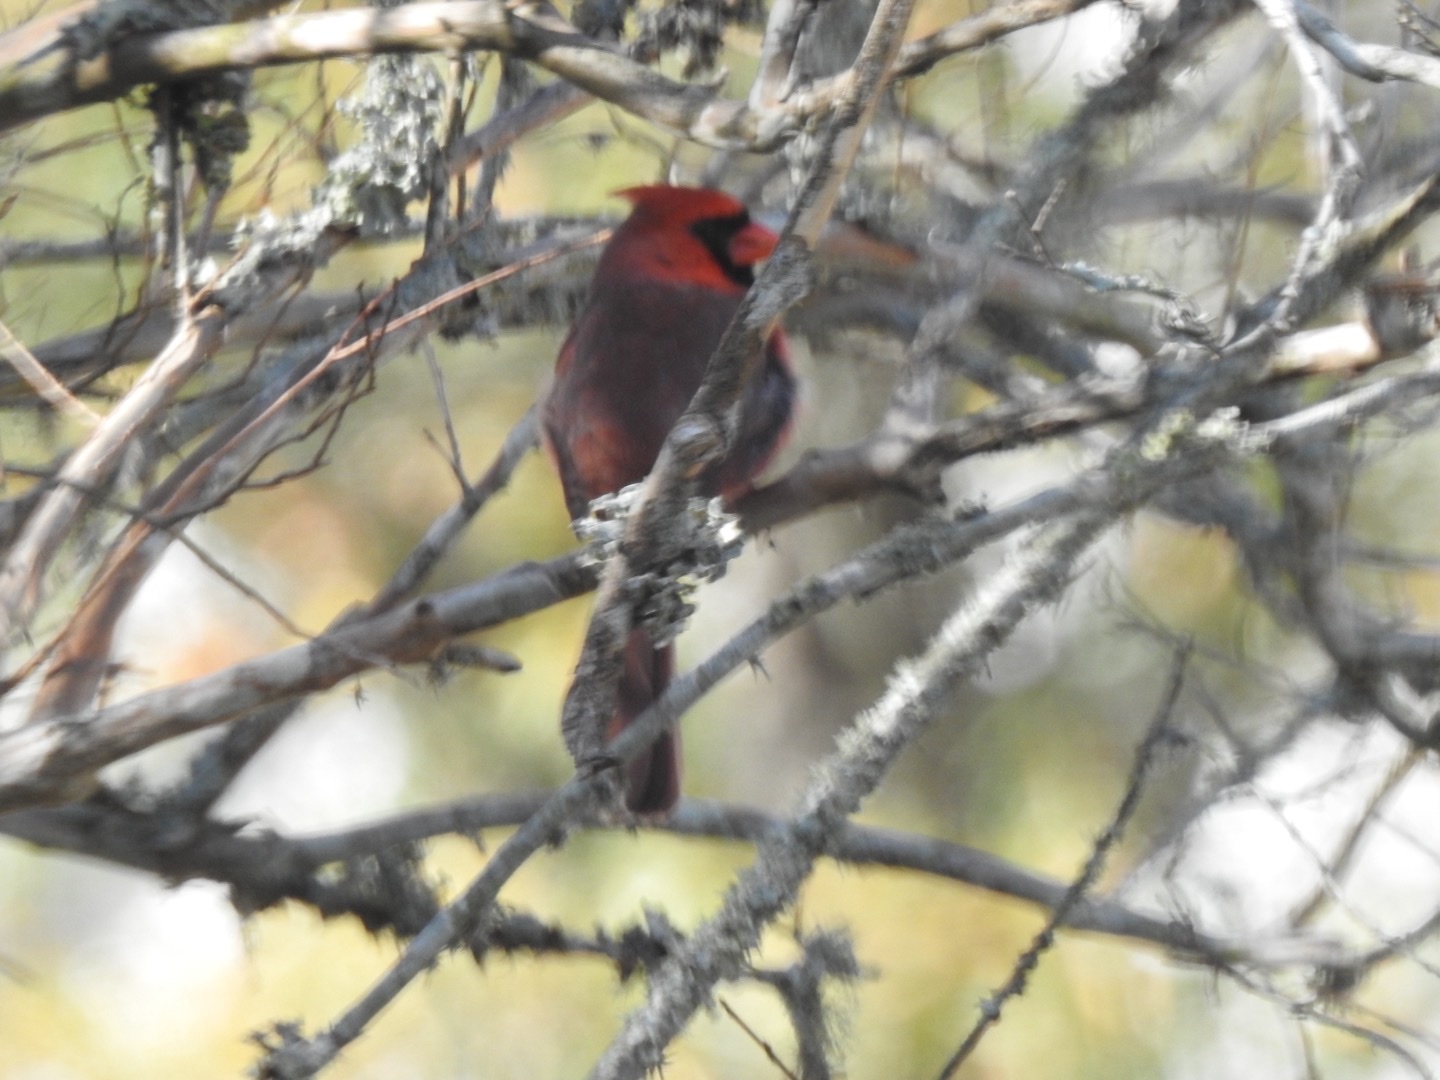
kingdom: Animalia
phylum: Chordata
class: Aves
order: Passeriformes
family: Cardinalidae
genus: Cardinalis
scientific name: Cardinalis cardinalis
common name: Northern cardinal
